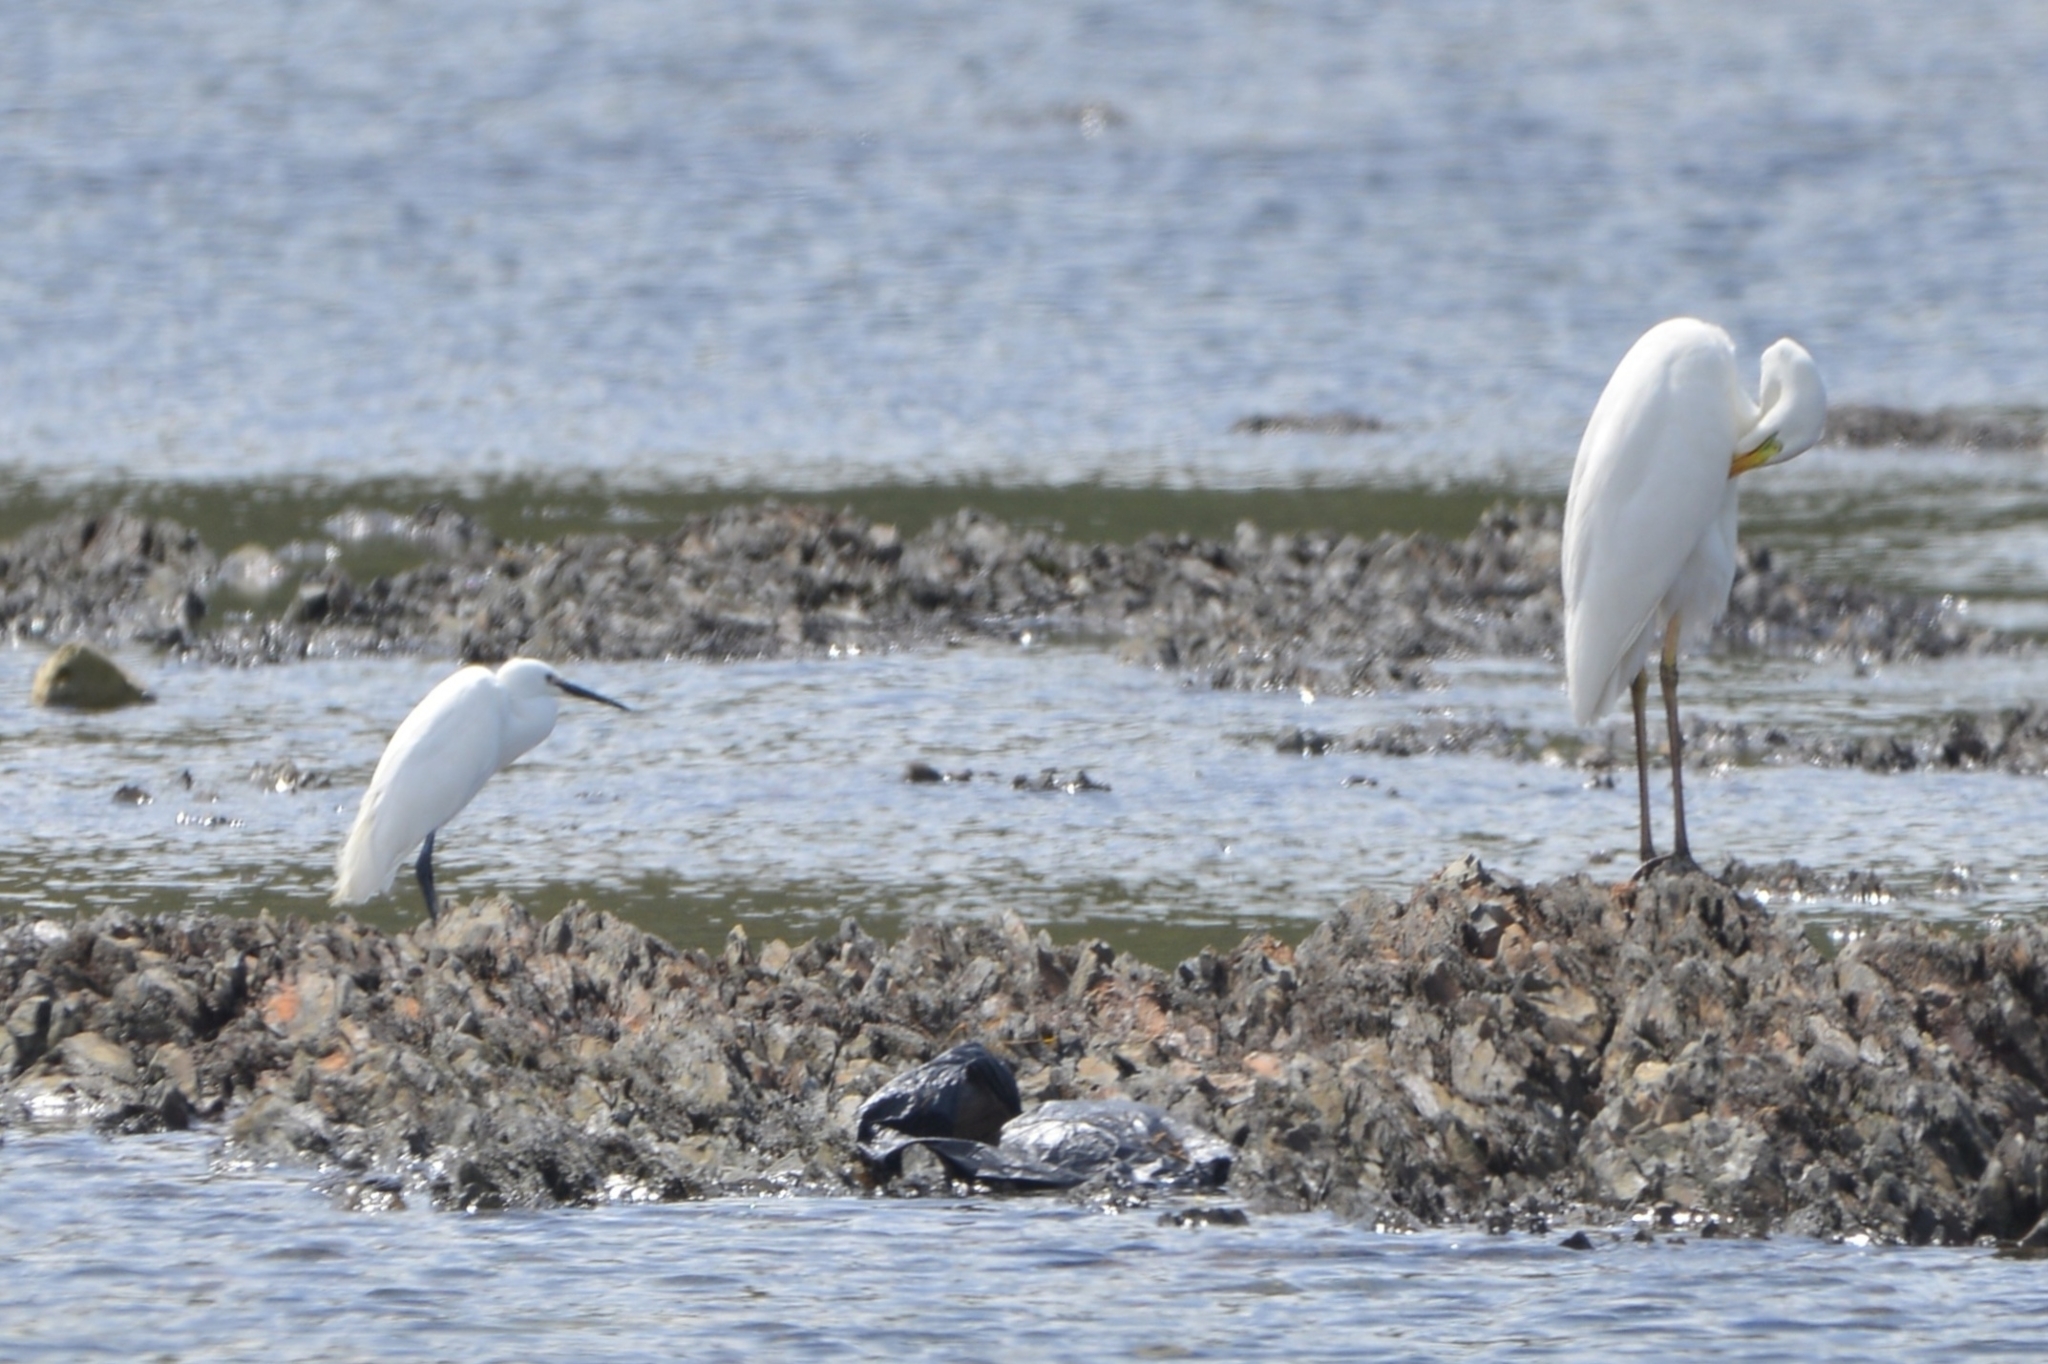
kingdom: Animalia
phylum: Chordata
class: Aves
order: Pelecaniformes
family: Ardeidae
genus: Egretta
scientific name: Egretta garzetta
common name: Little egret
